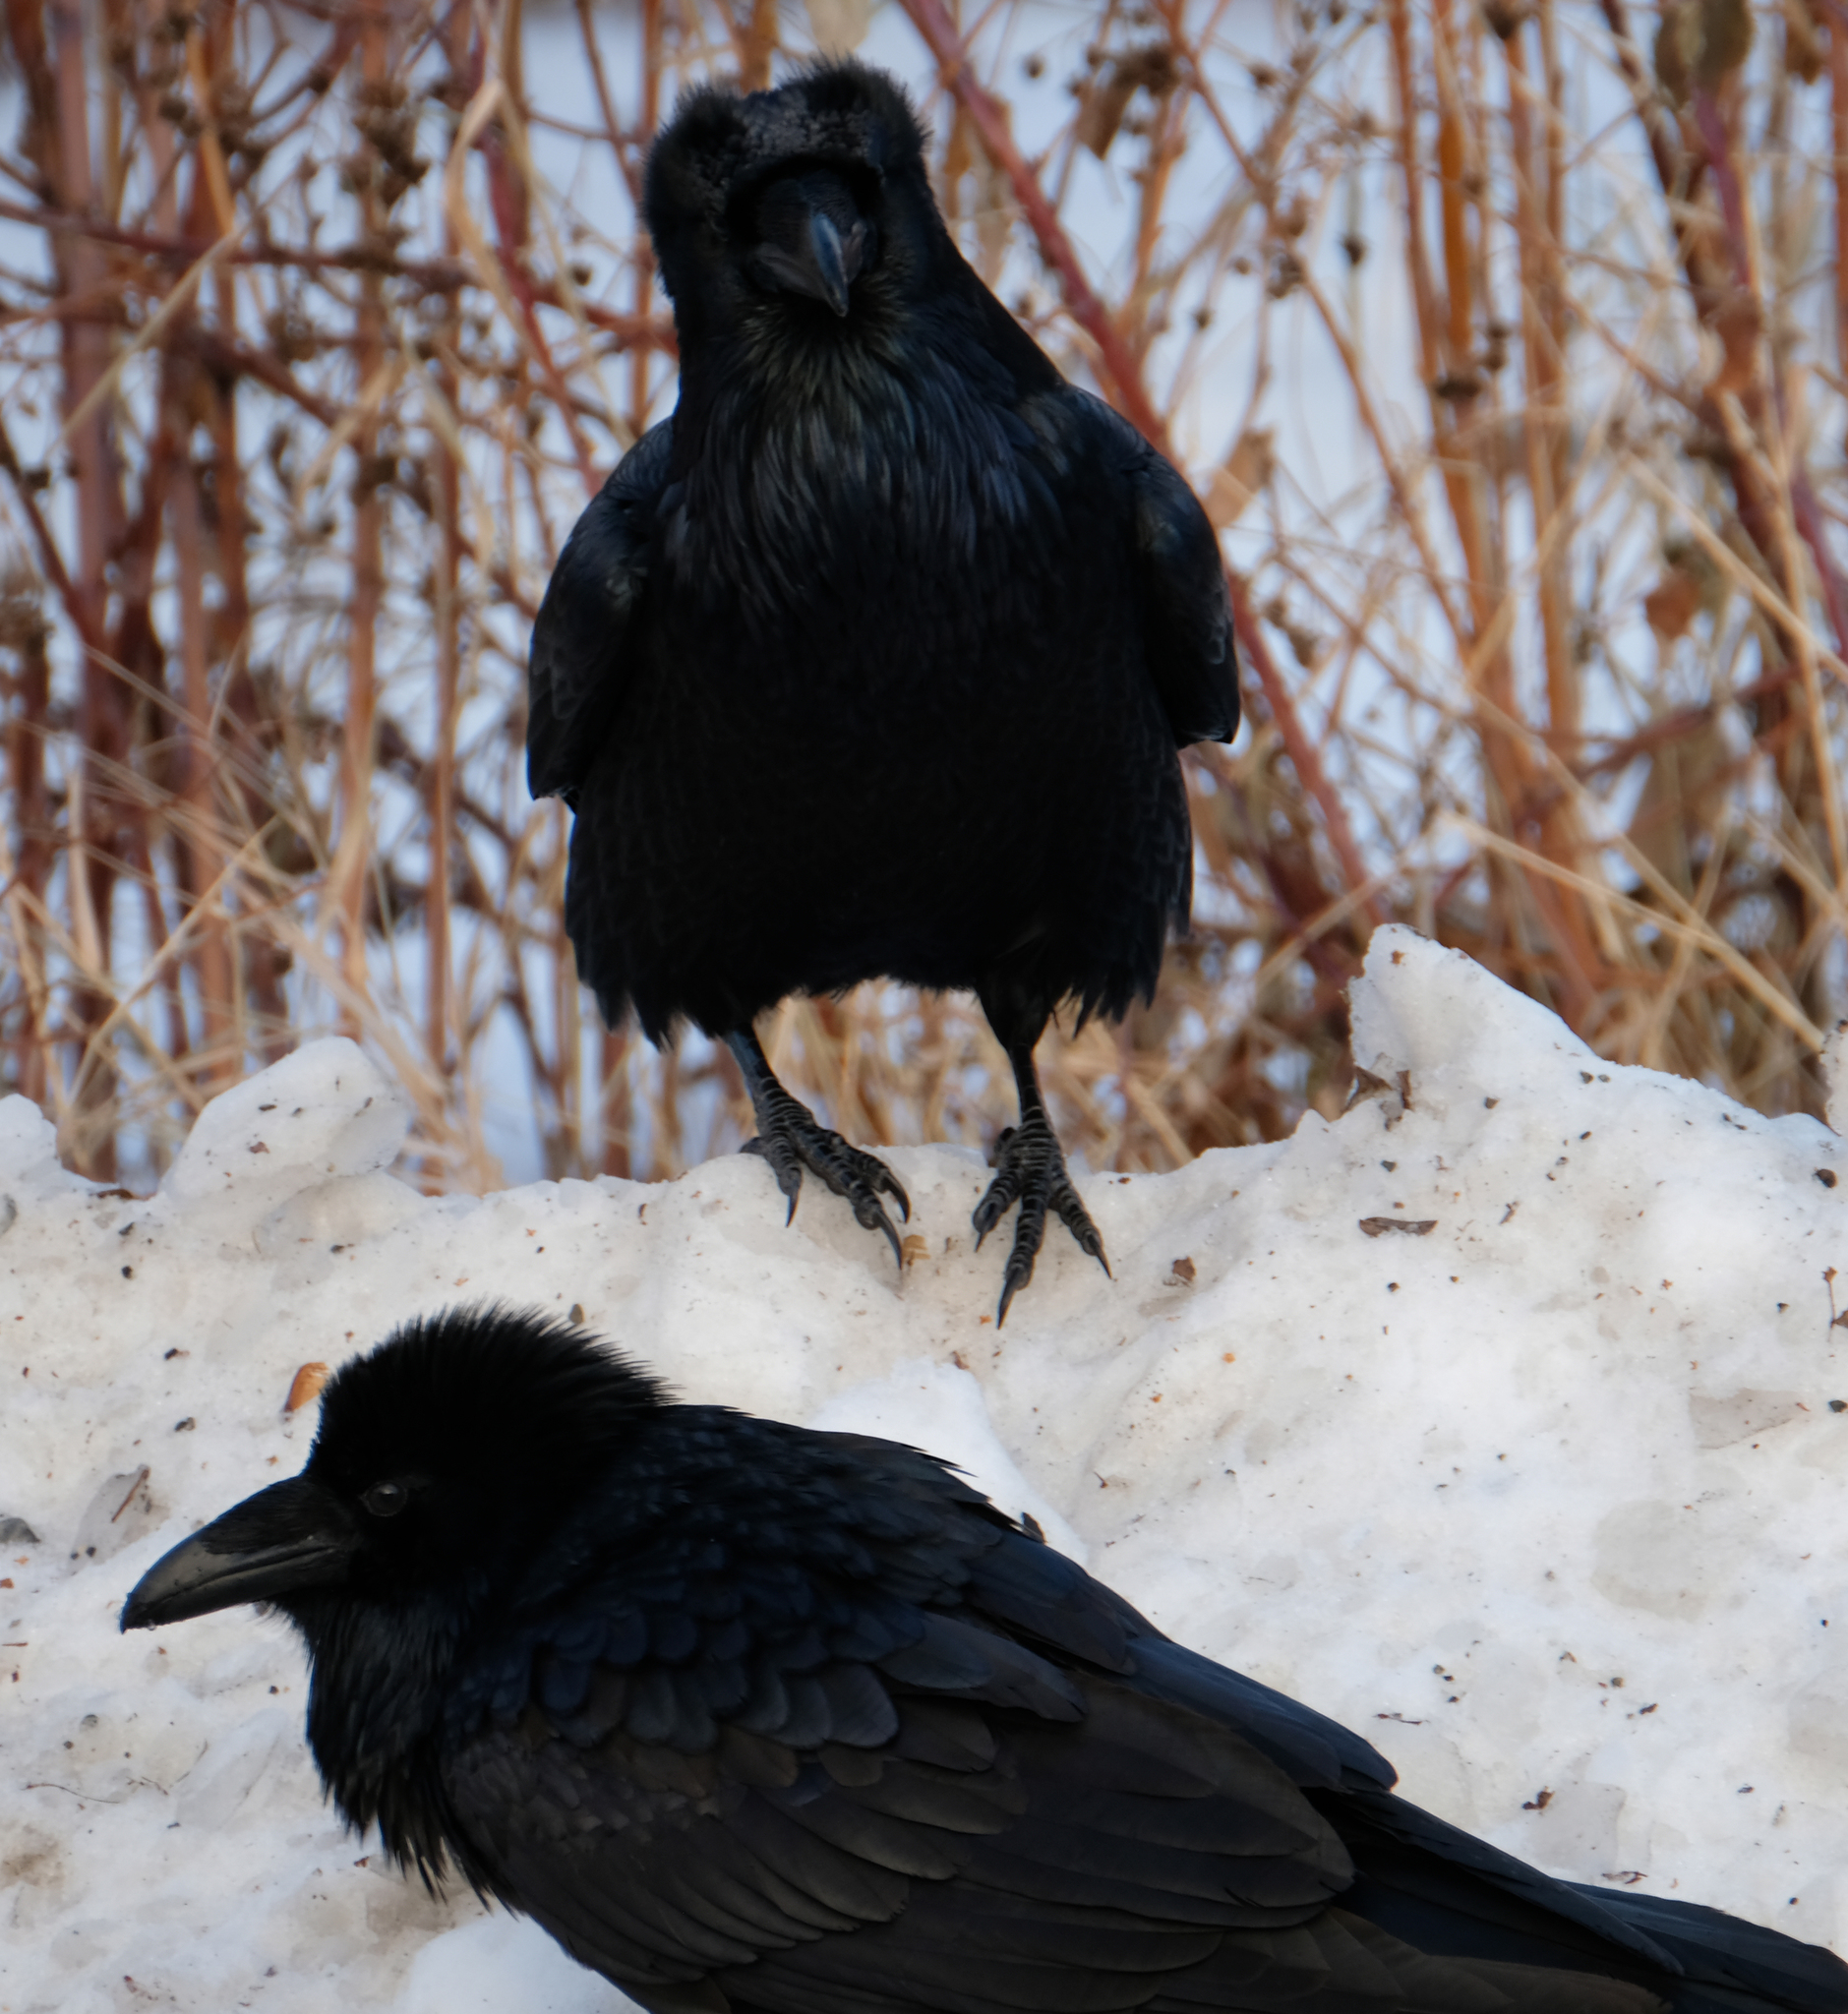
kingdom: Animalia
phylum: Chordata
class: Aves
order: Passeriformes
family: Corvidae
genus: Corvus
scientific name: Corvus corax
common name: Common raven
